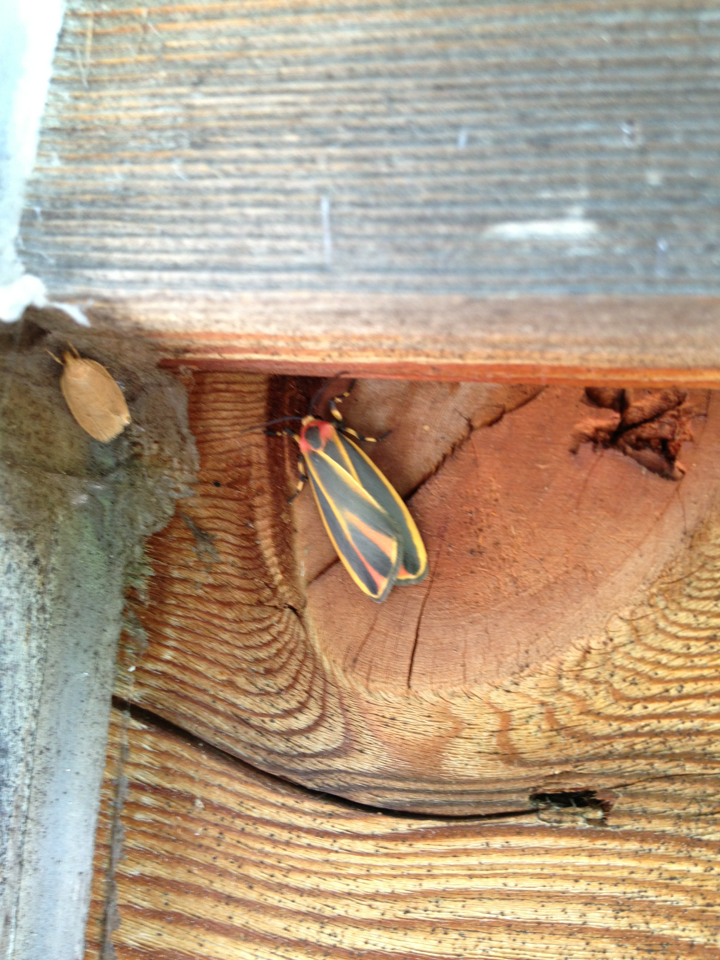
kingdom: Animalia
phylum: Arthropoda
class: Insecta
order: Lepidoptera
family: Erebidae
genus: Hypoprepia
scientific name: Hypoprepia fucosa
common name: Painted lichen moth
